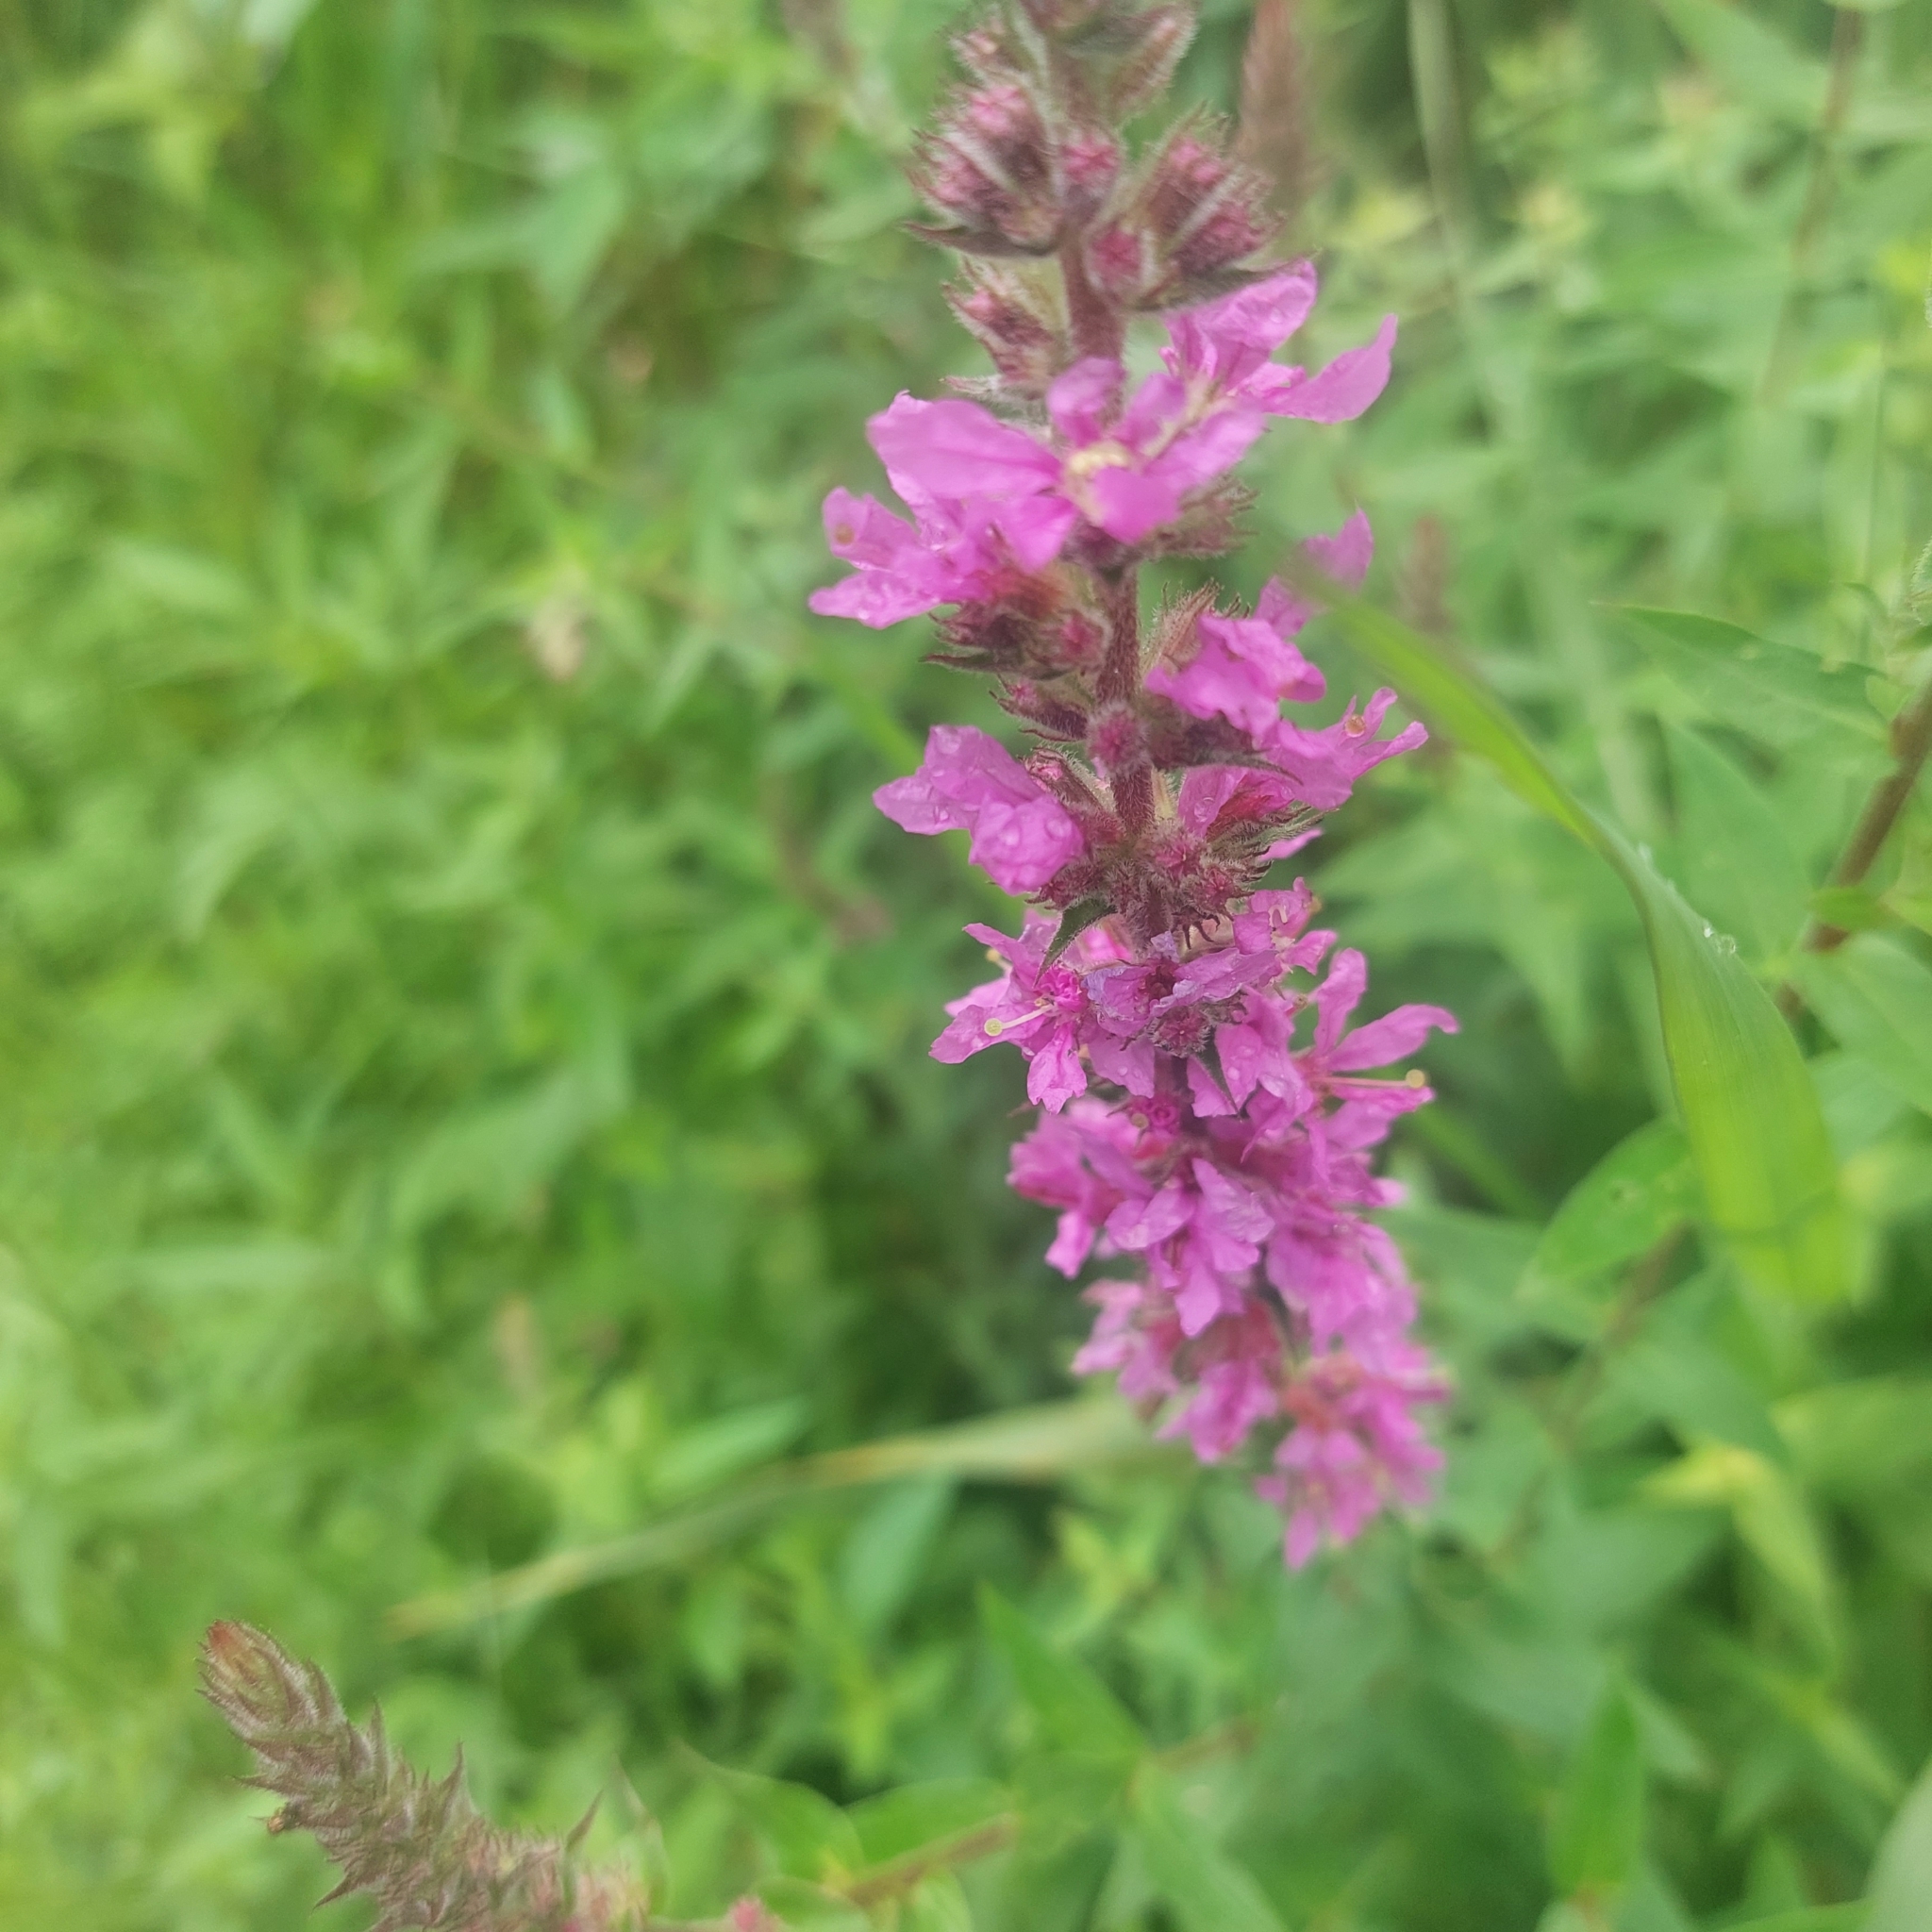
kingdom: Plantae
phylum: Tracheophyta
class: Magnoliopsida
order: Myrtales
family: Lythraceae
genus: Lythrum
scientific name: Lythrum salicaria
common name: Purple loosestrife
